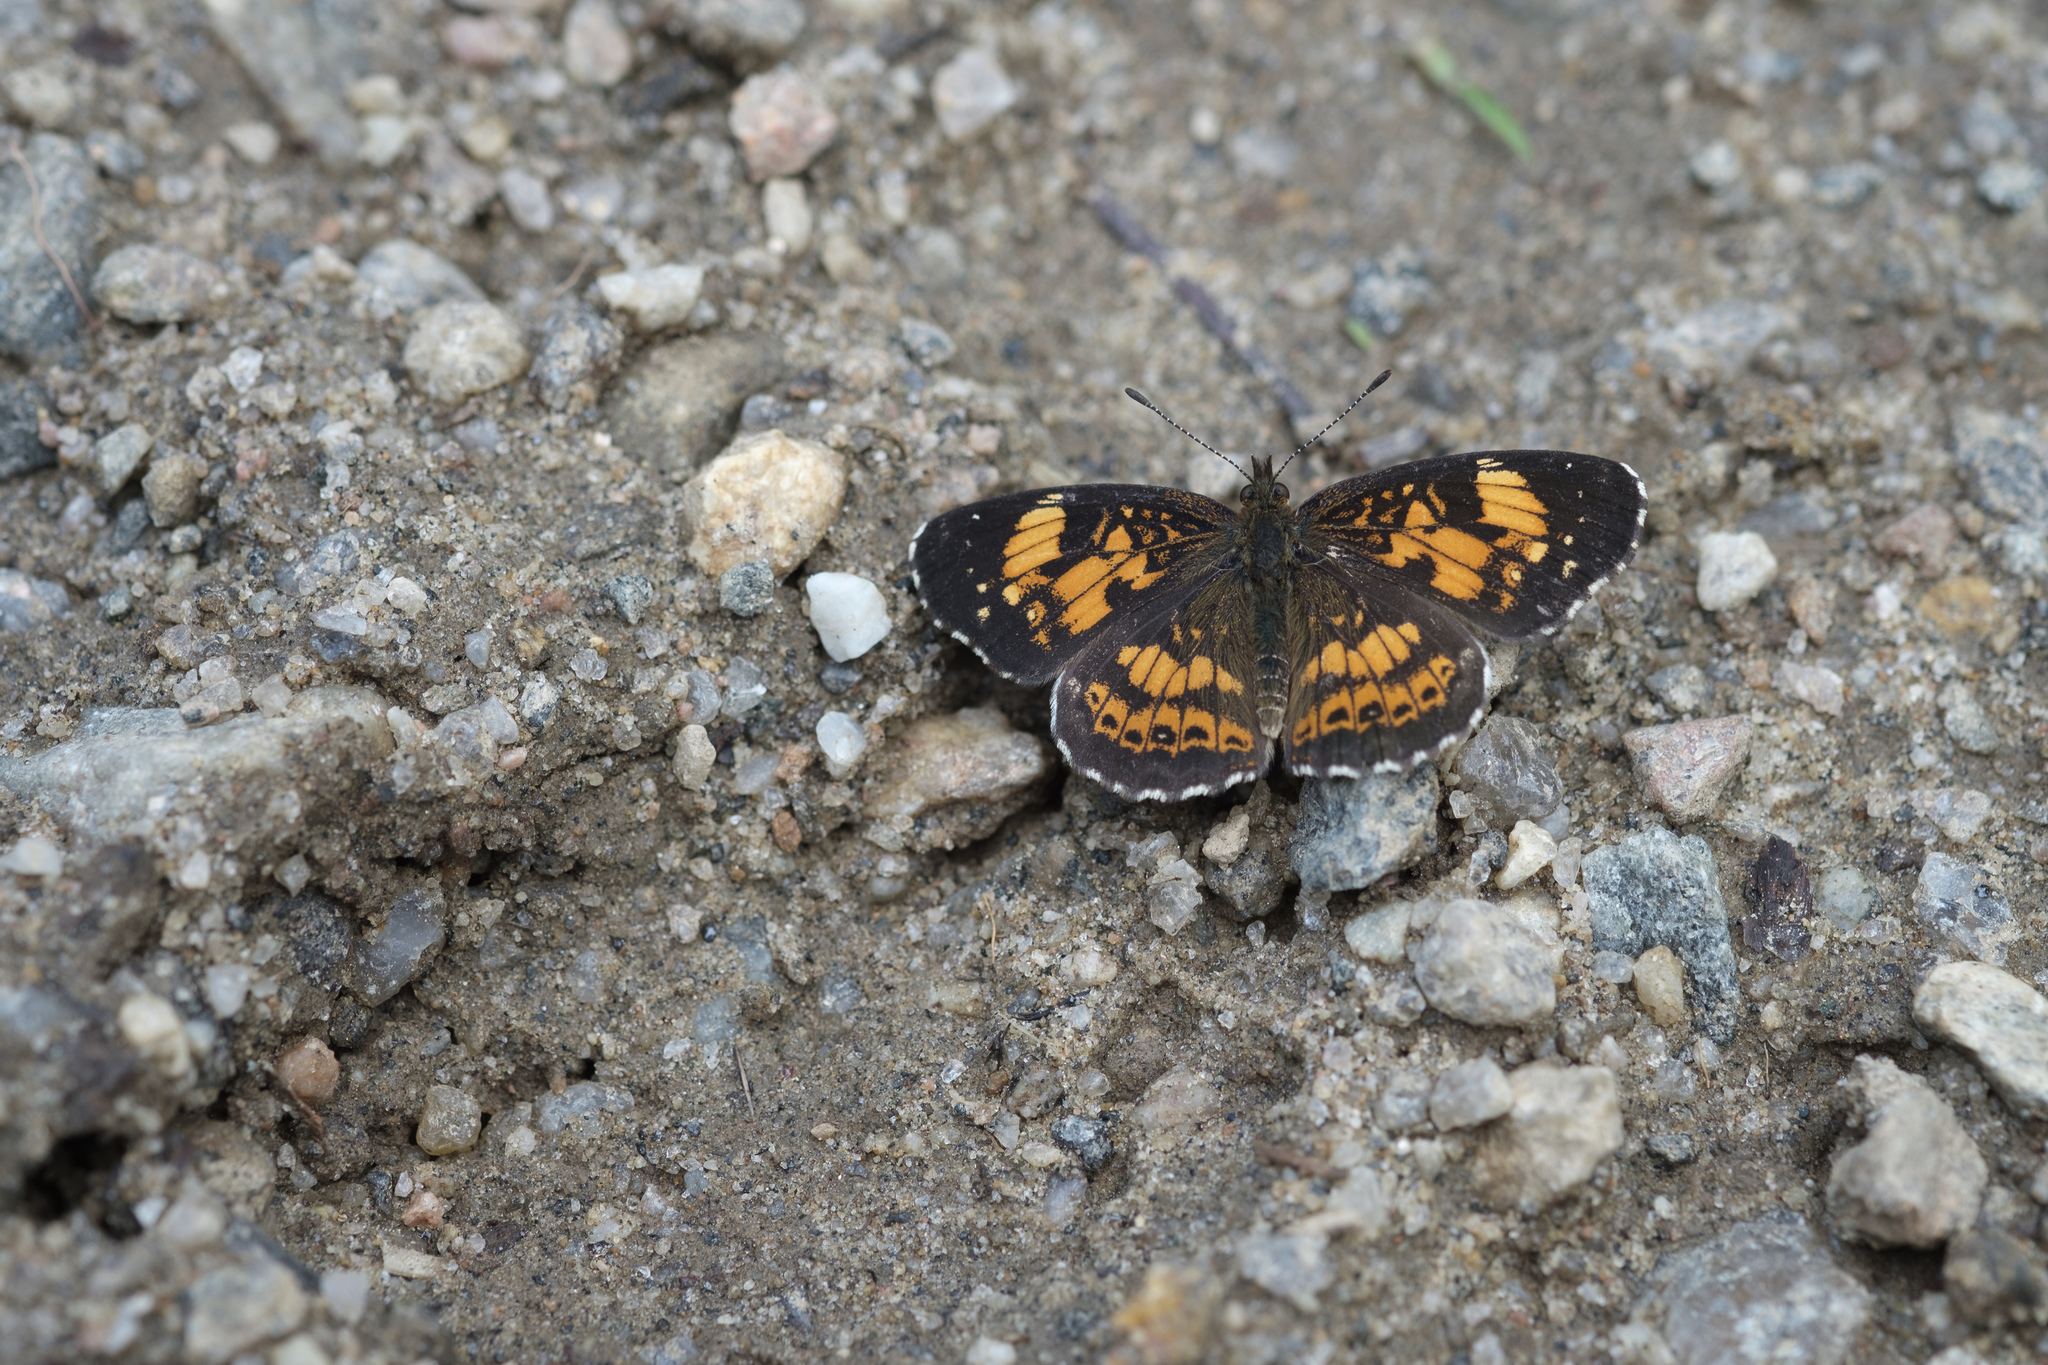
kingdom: Animalia
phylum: Arthropoda
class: Insecta
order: Lepidoptera
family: Nymphalidae
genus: Chlosyne
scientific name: Chlosyne nycteis
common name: Silvery checkerspot
